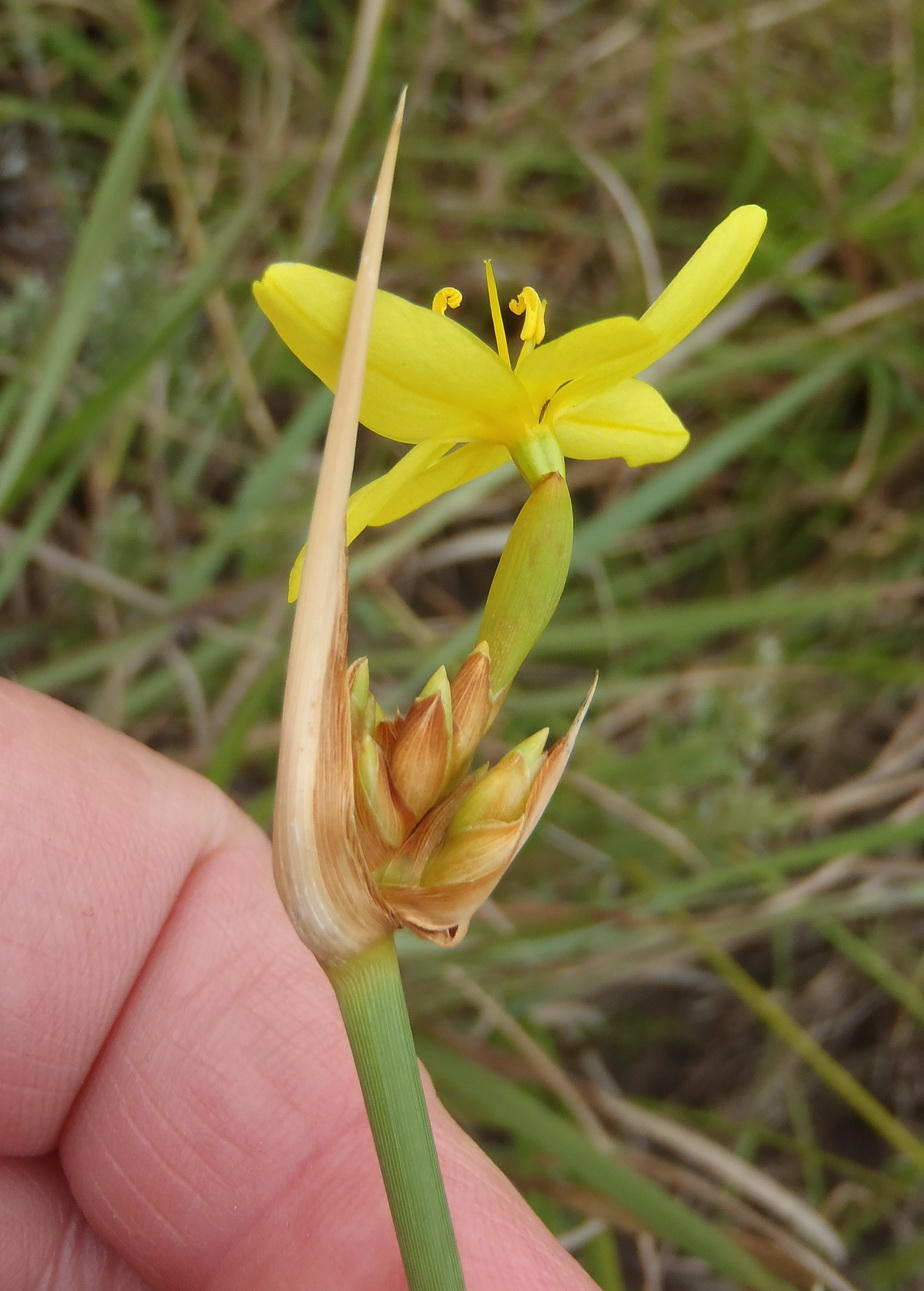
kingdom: Plantae
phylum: Tracheophyta
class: Liliopsida
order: Asparagales
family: Iridaceae
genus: Bobartia
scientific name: Bobartia orientalis
